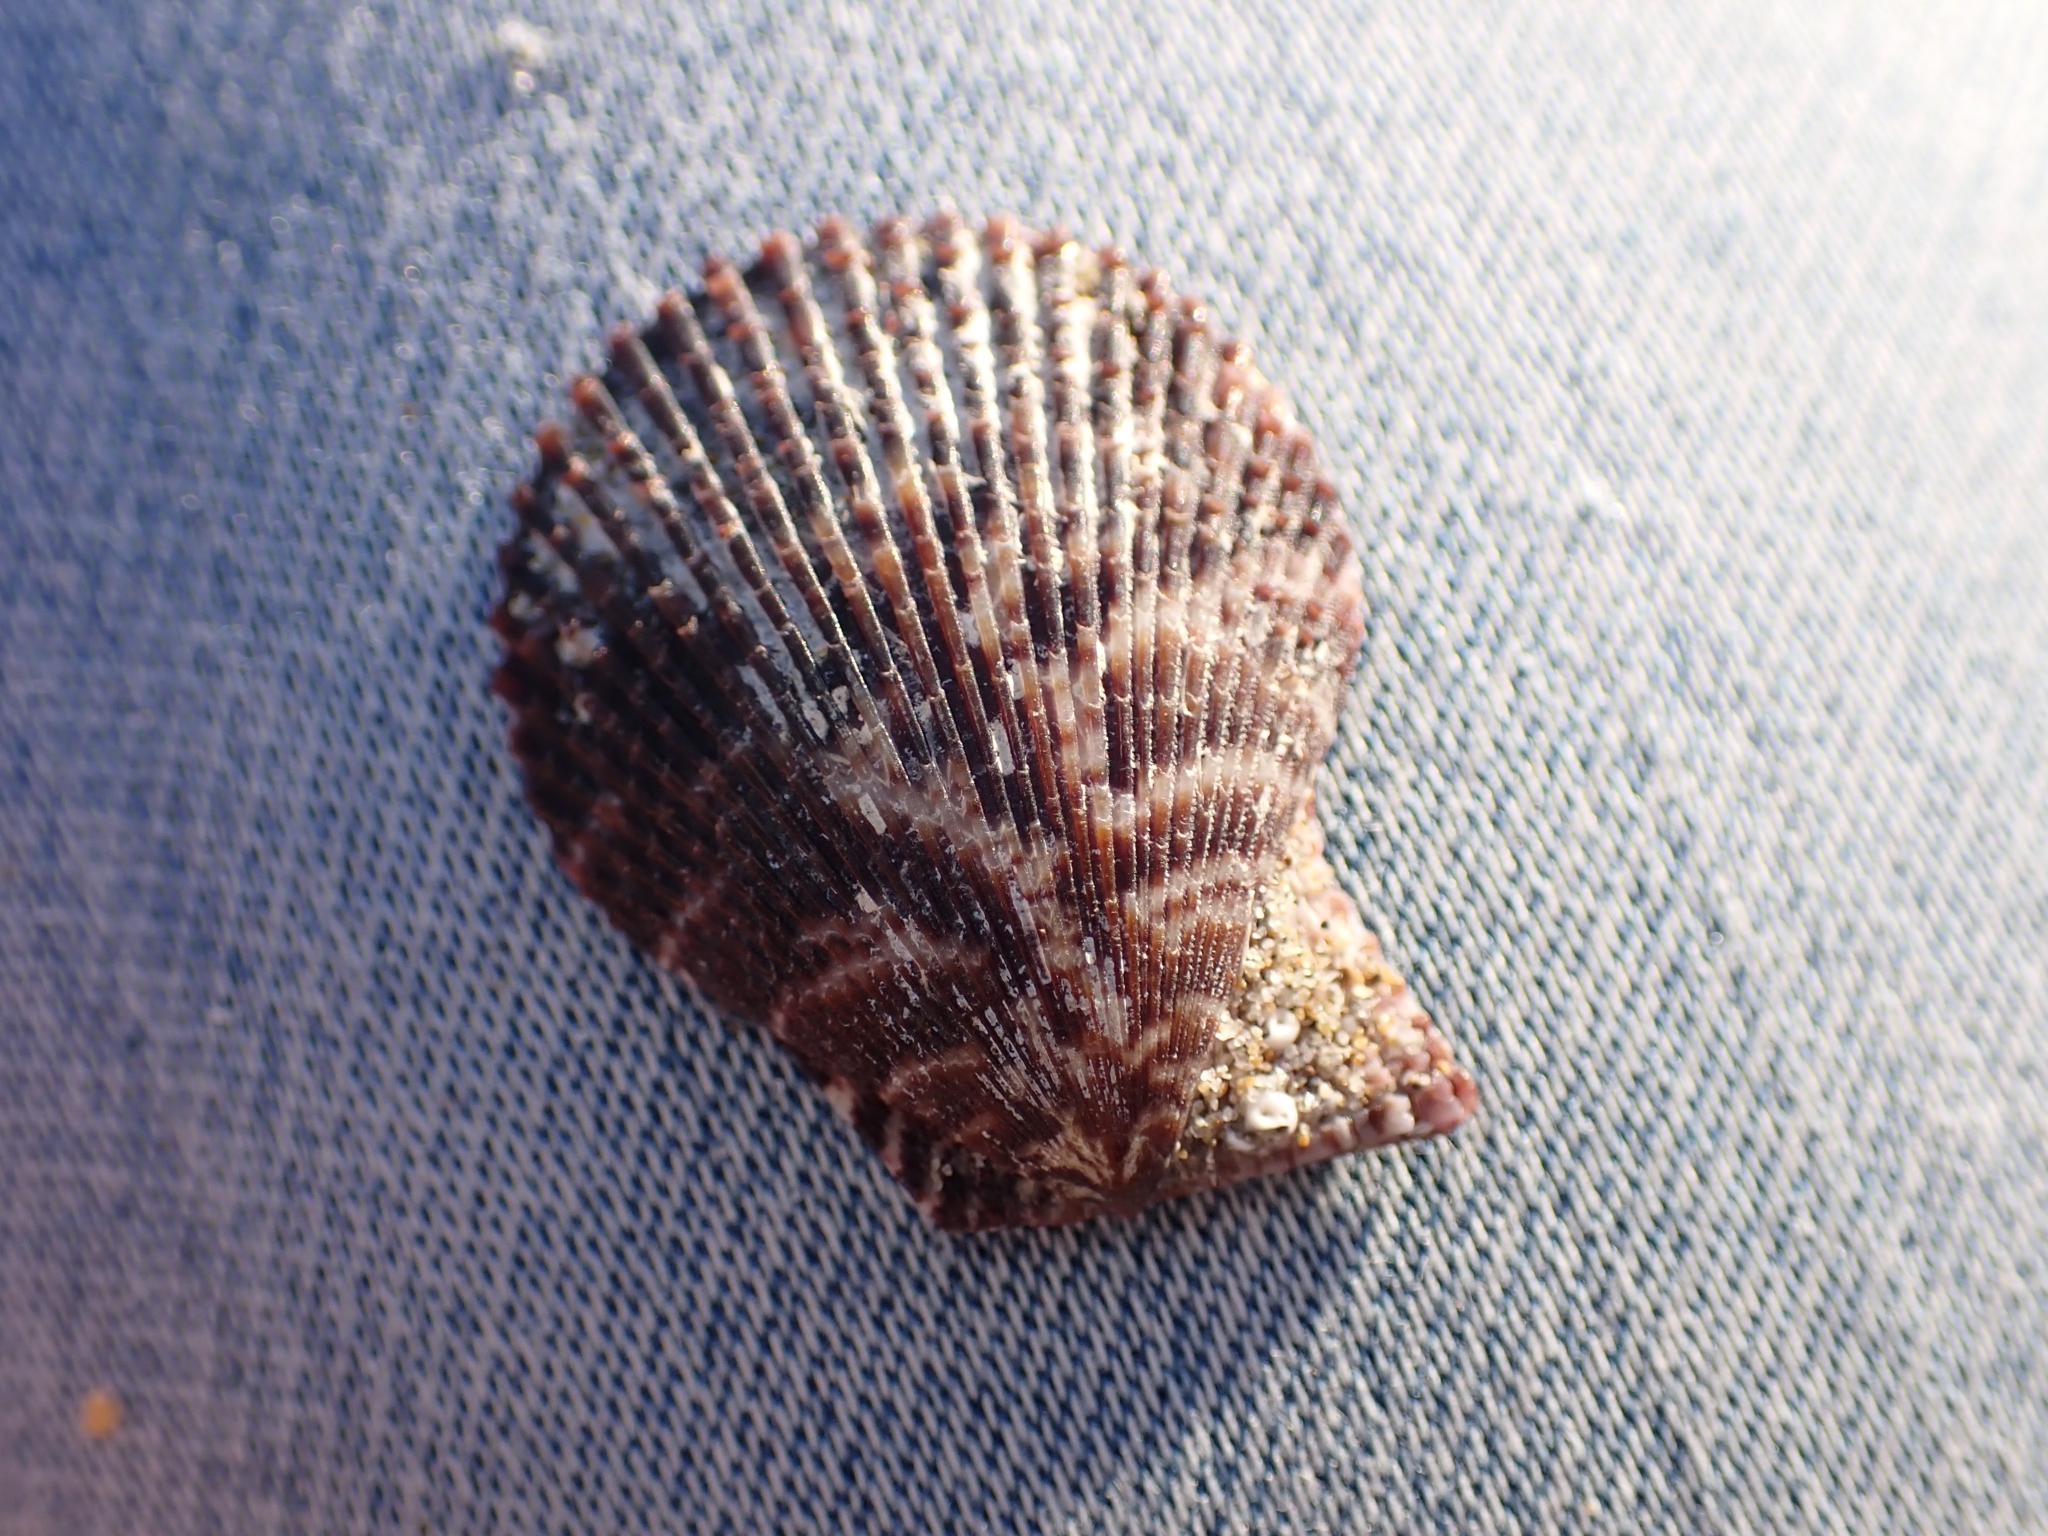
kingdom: Animalia
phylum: Mollusca
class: Bivalvia
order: Pectinida
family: Pectinidae
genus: Mimachlamys
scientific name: Mimachlamys varia
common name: Variegated scallop
